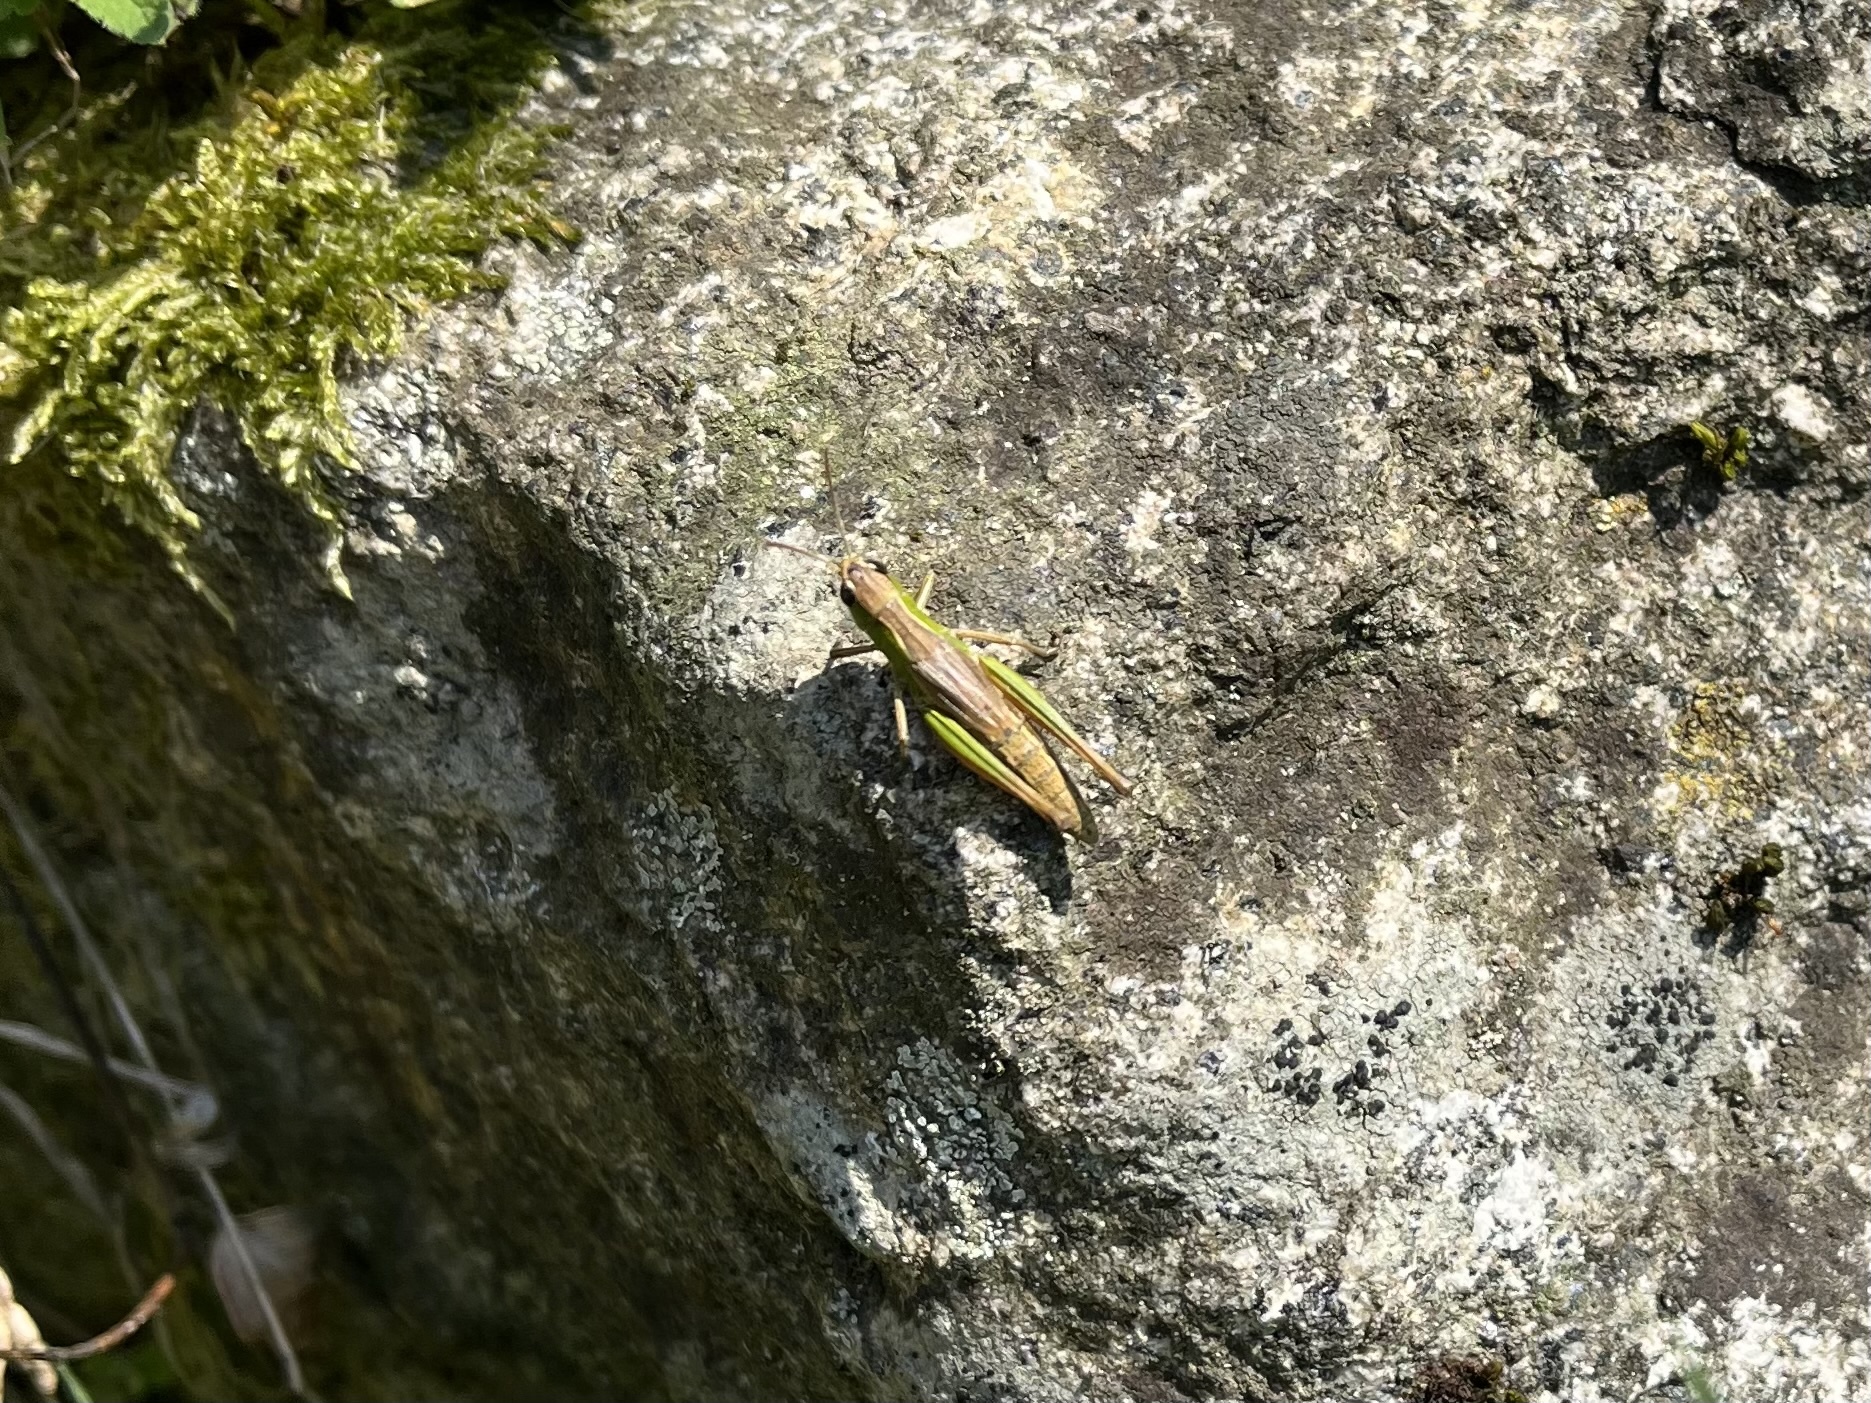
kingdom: Animalia
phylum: Arthropoda
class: Insecta
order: Orthoptera
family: Acrididae
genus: Pseudochorthippus
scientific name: Pseudochorthippus parallelus
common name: Meadow grasshopper
